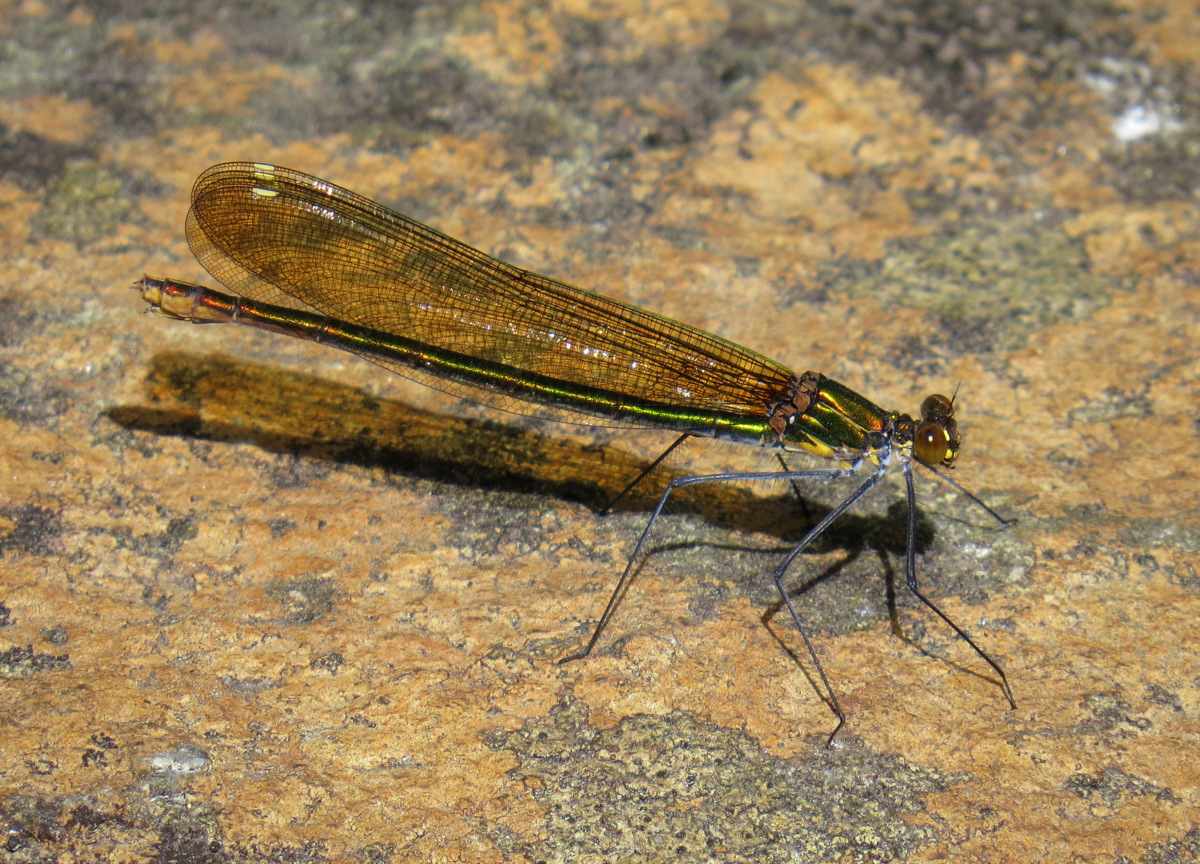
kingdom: Animalia
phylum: Arthropoda
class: Insecta
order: Odonata
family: Calopterygidae
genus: Calopteryx
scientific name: Calopteryx amata
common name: Superb jewelwing
